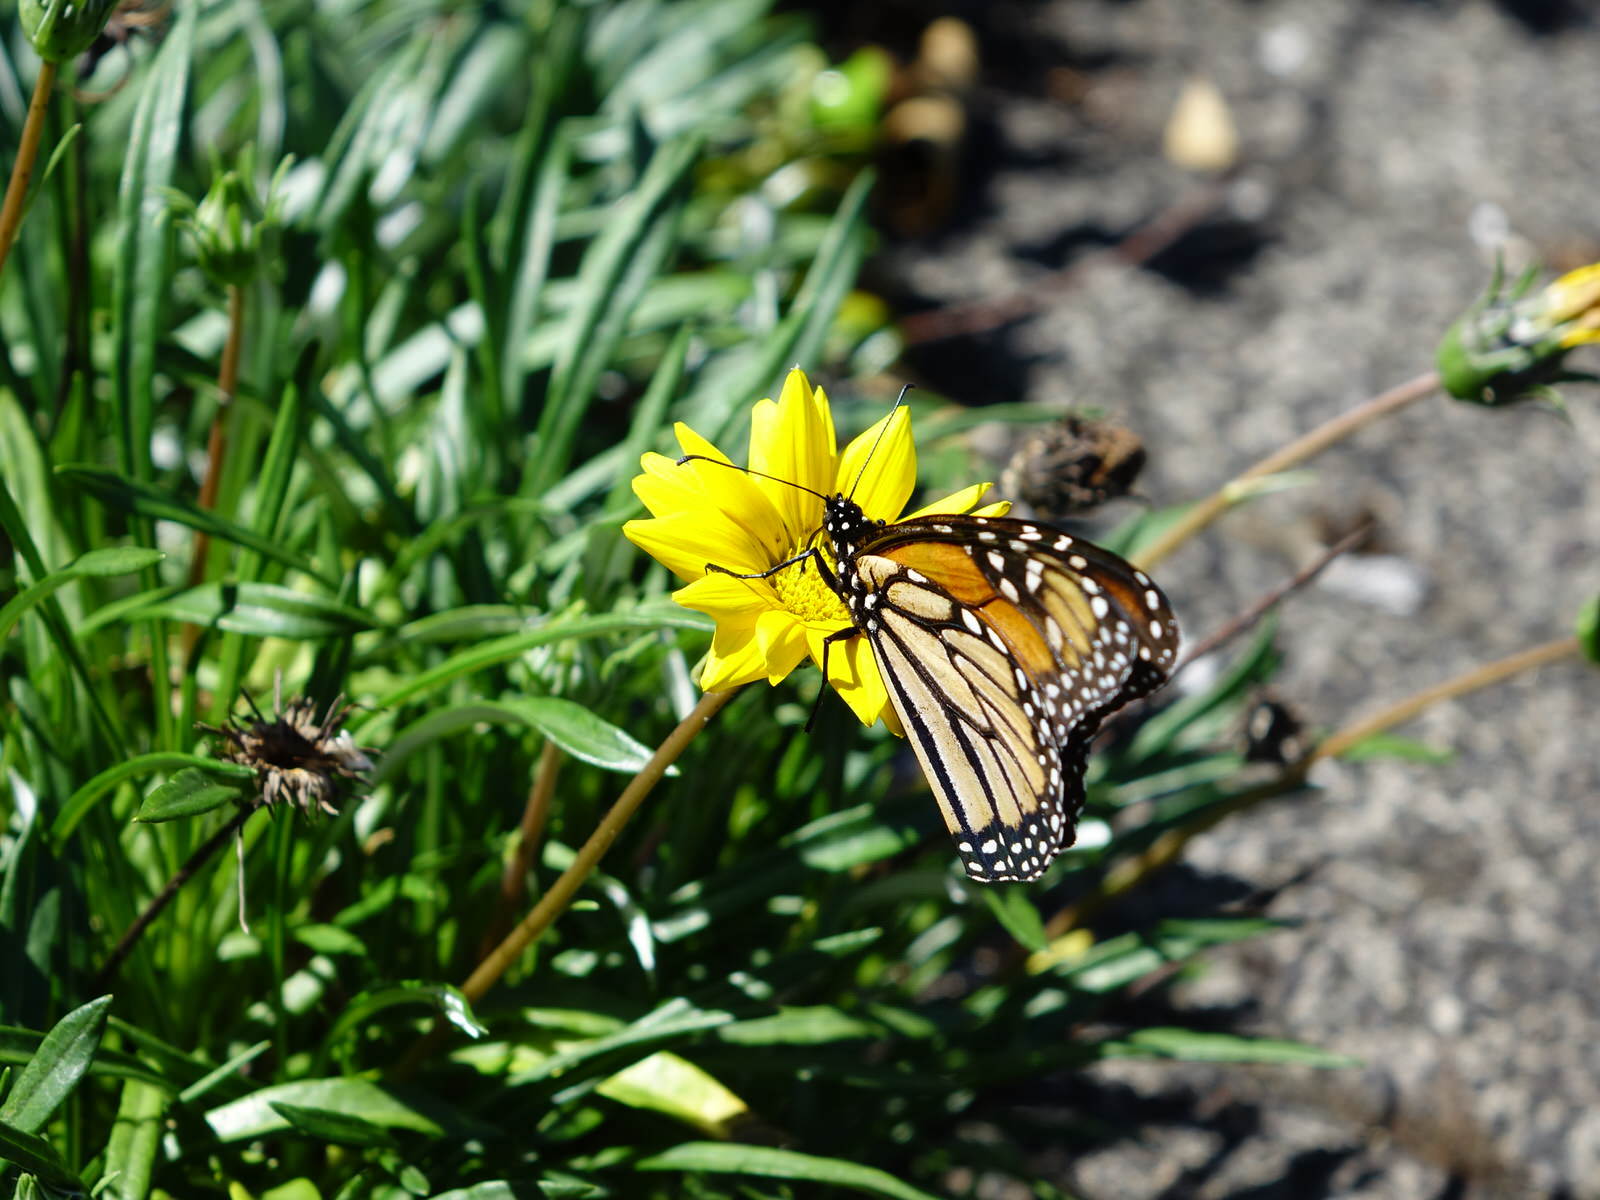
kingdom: Animalia
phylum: Arthropoda
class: Insecta
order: Lepidoptera
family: Nymphalidae
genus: Danaus
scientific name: Danaus plexippus
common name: Monarch
